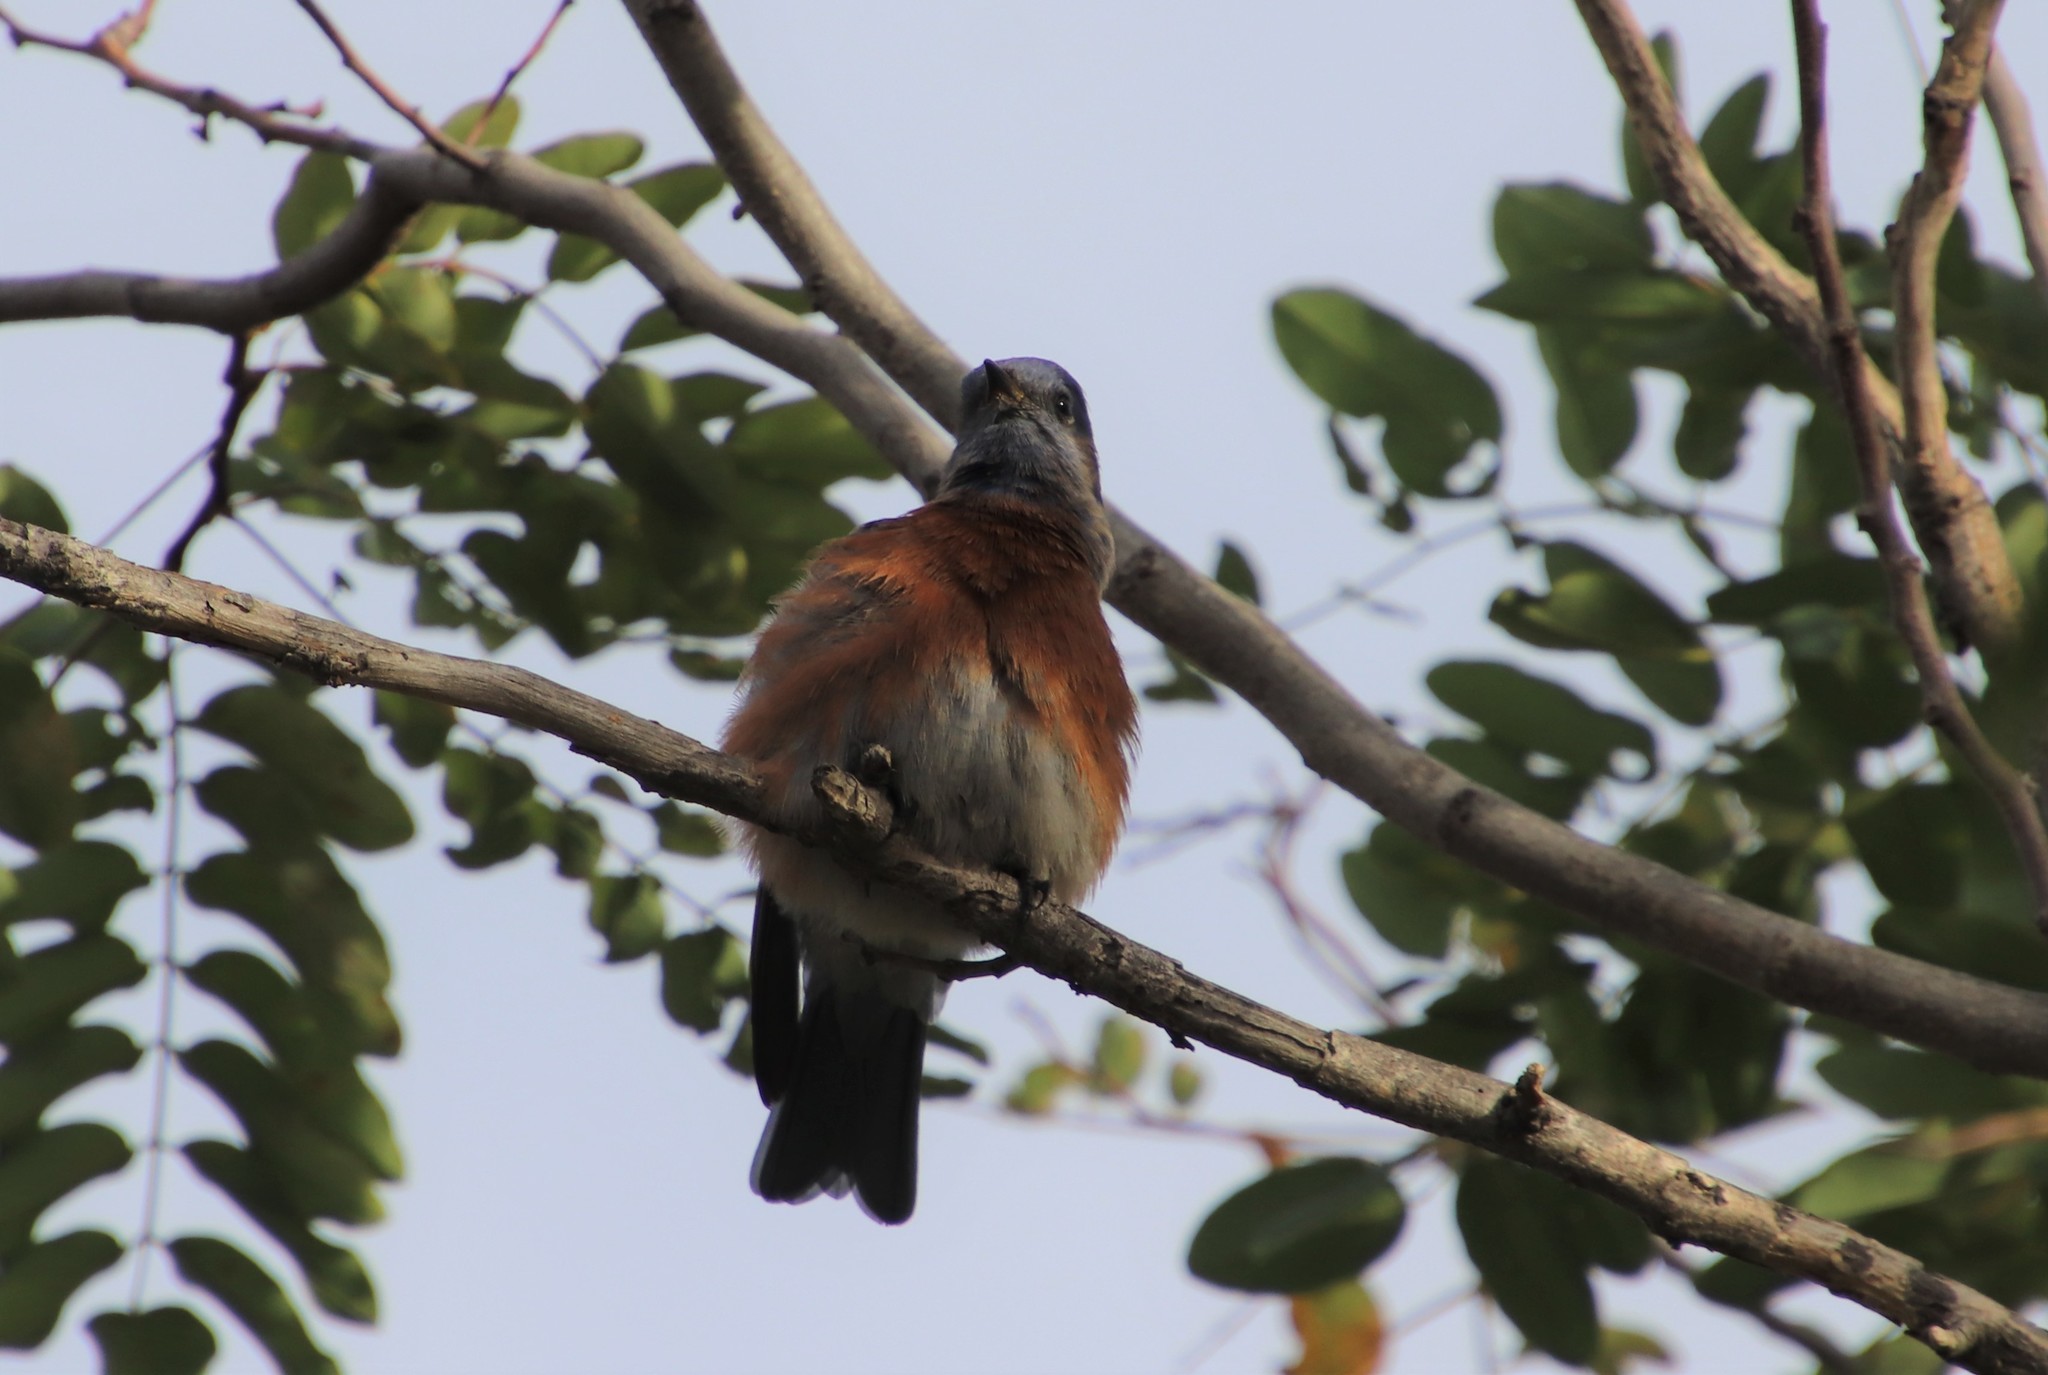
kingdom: Animalia
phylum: Chordata
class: Aves
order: Passeriformes
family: Turdidae
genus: Sialia
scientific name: Sialia mexicana
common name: Western bluebird
